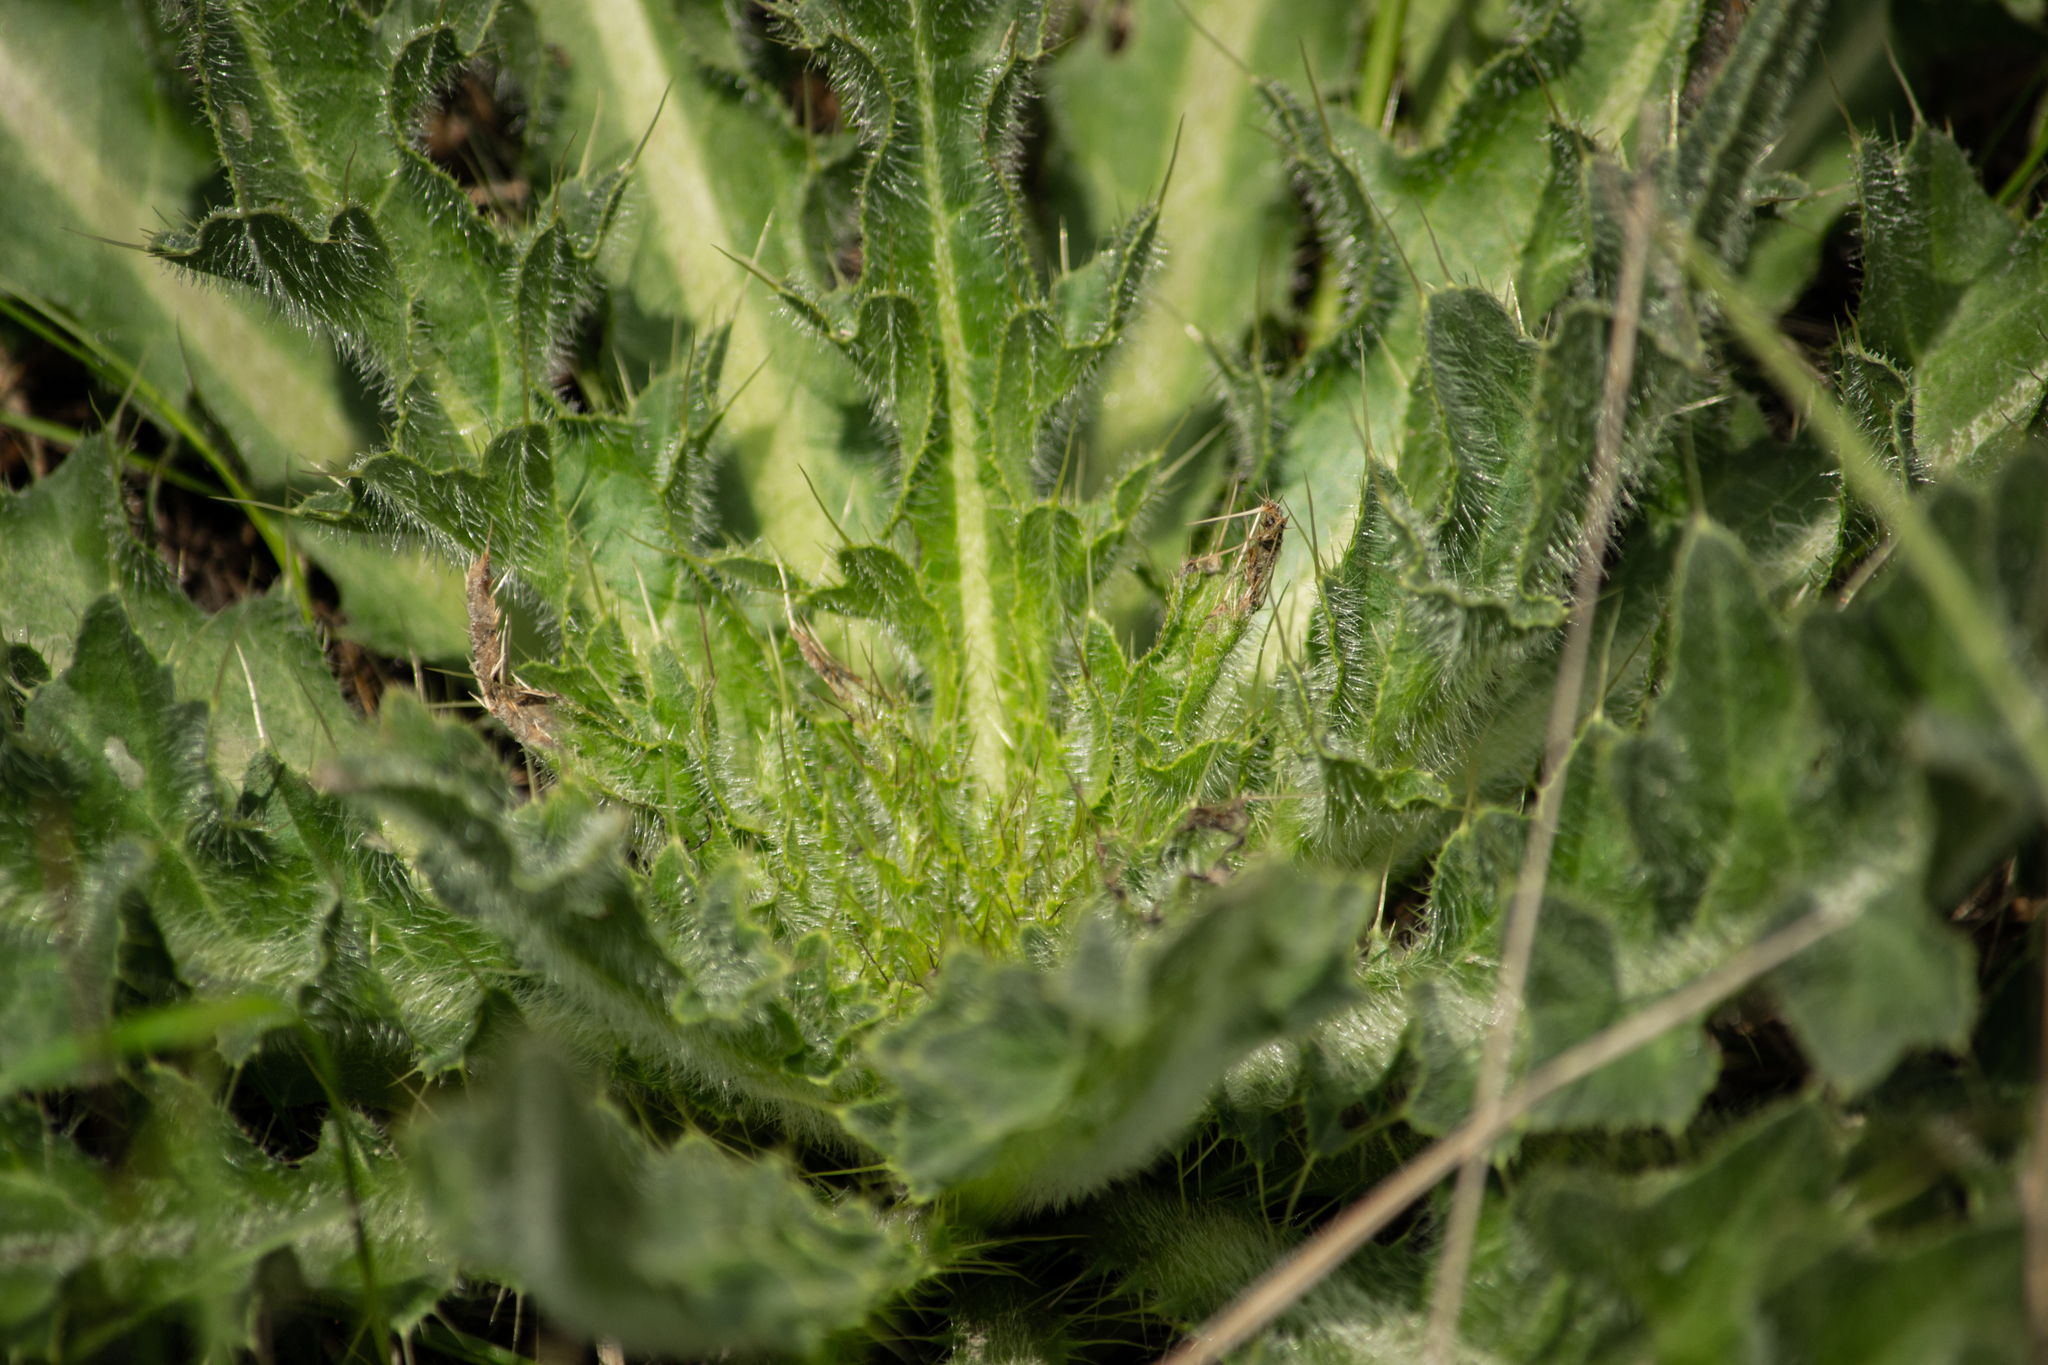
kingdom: Plantae
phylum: Tracheophyta
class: Magnoliopsida
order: Asterales
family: Asteraceae
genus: Cirsium
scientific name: Cirsium esculentum
